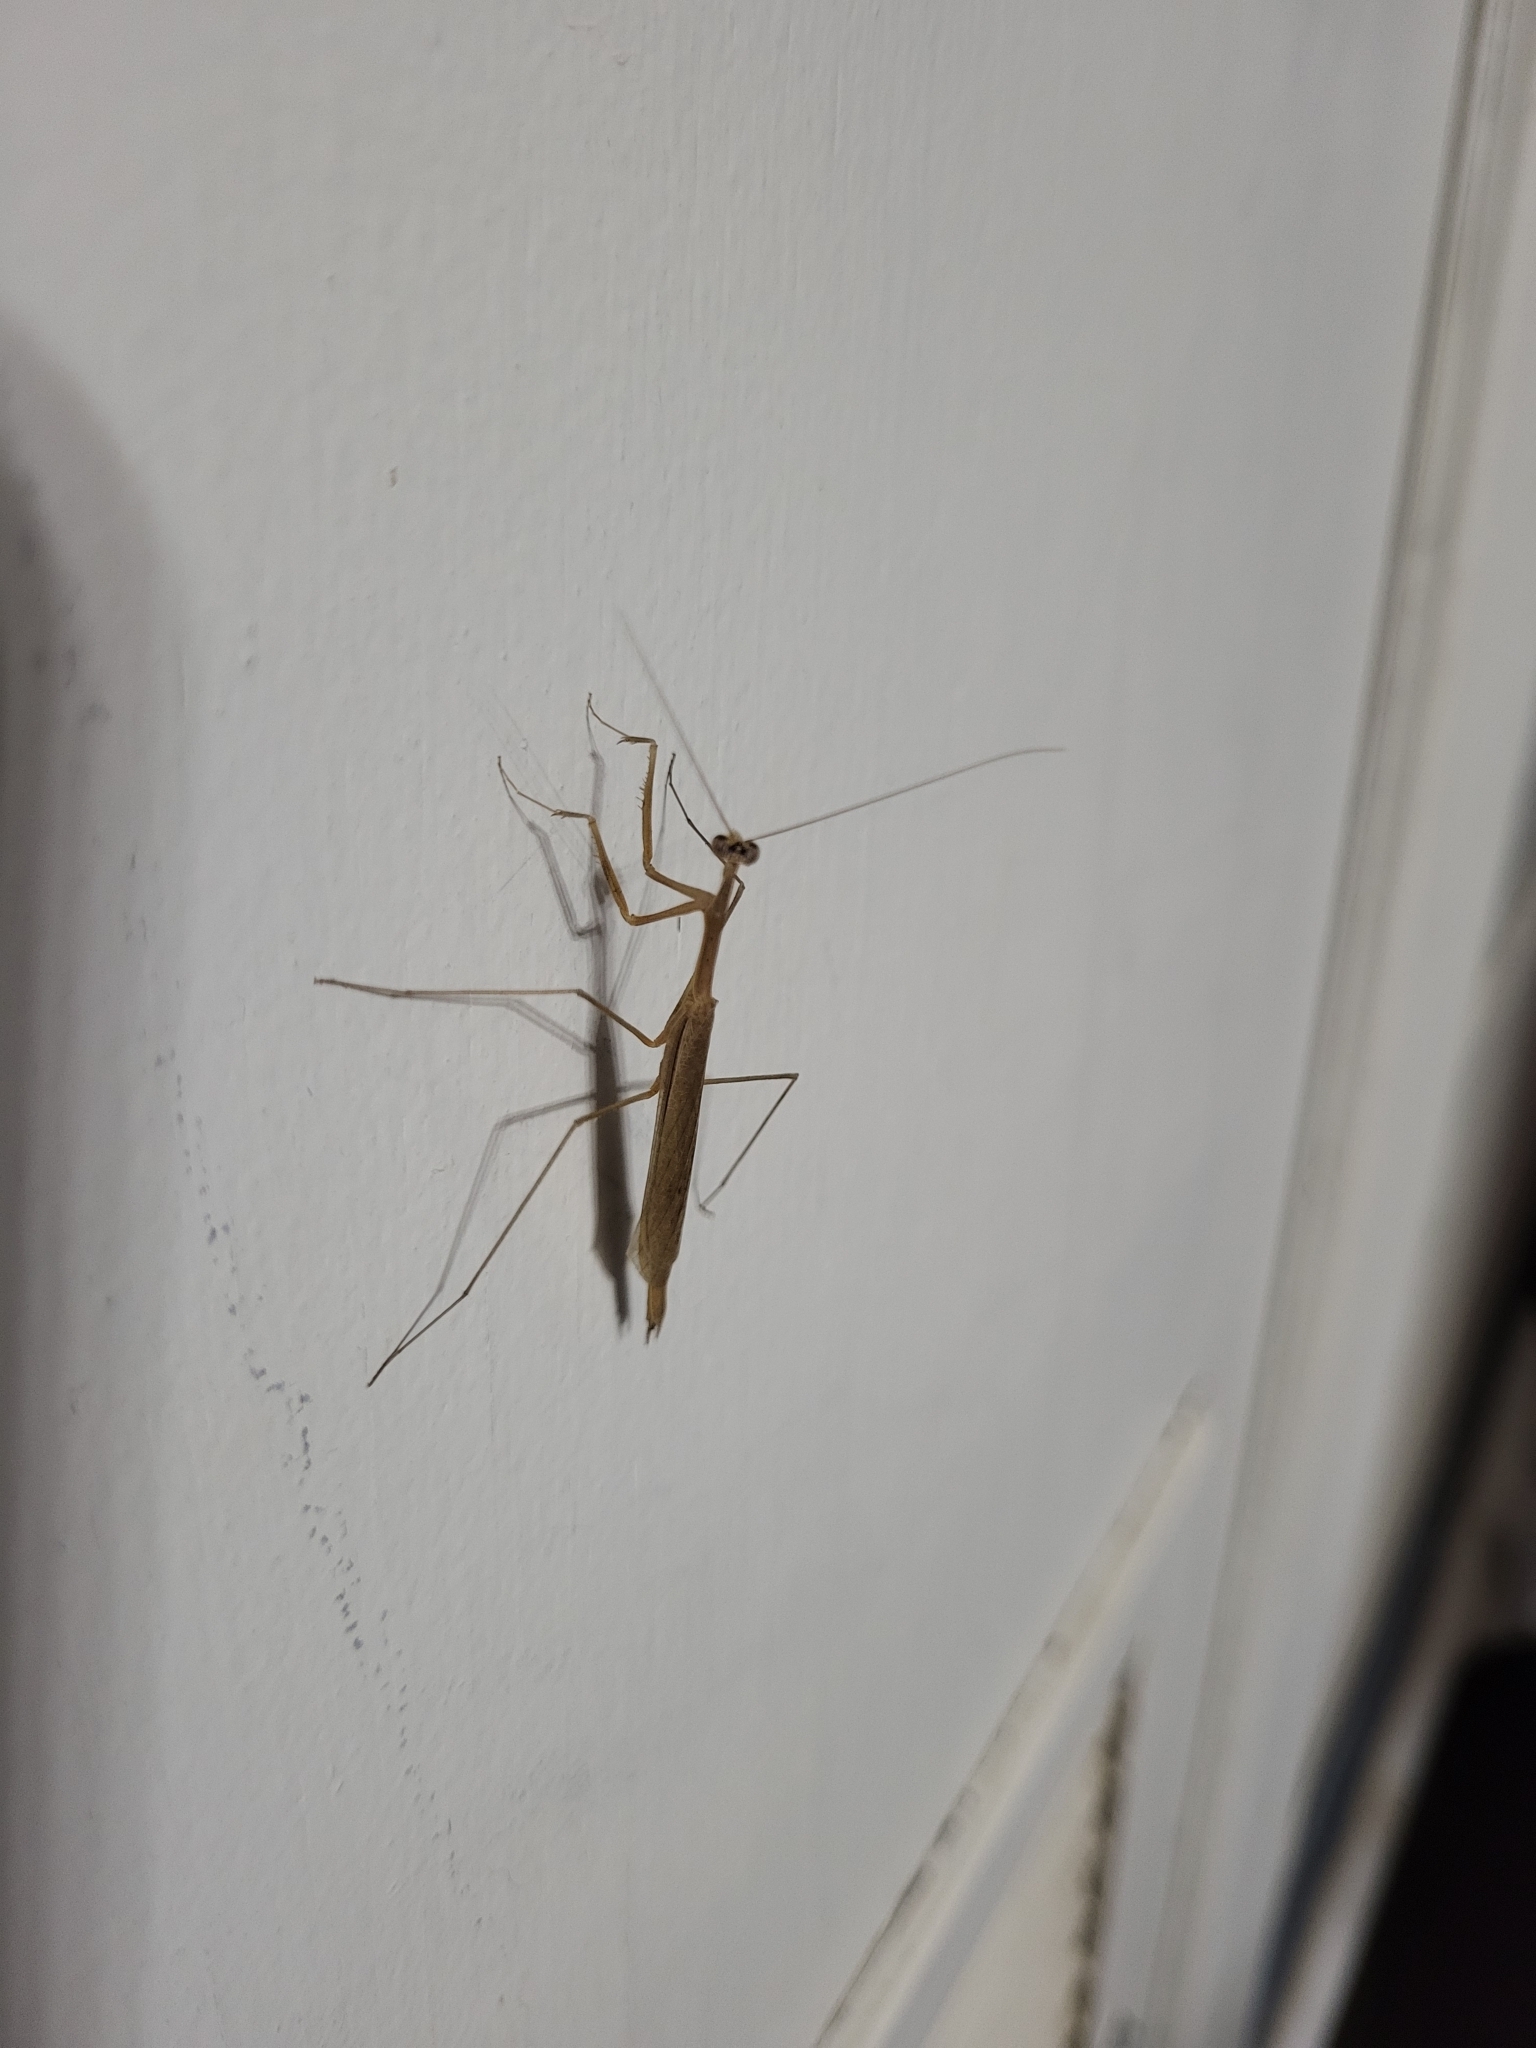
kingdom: Animalia
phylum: Arthropoda
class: Insecta
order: Mantodea
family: Thespidae
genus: Bistanta
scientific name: Bistanta mexicana
